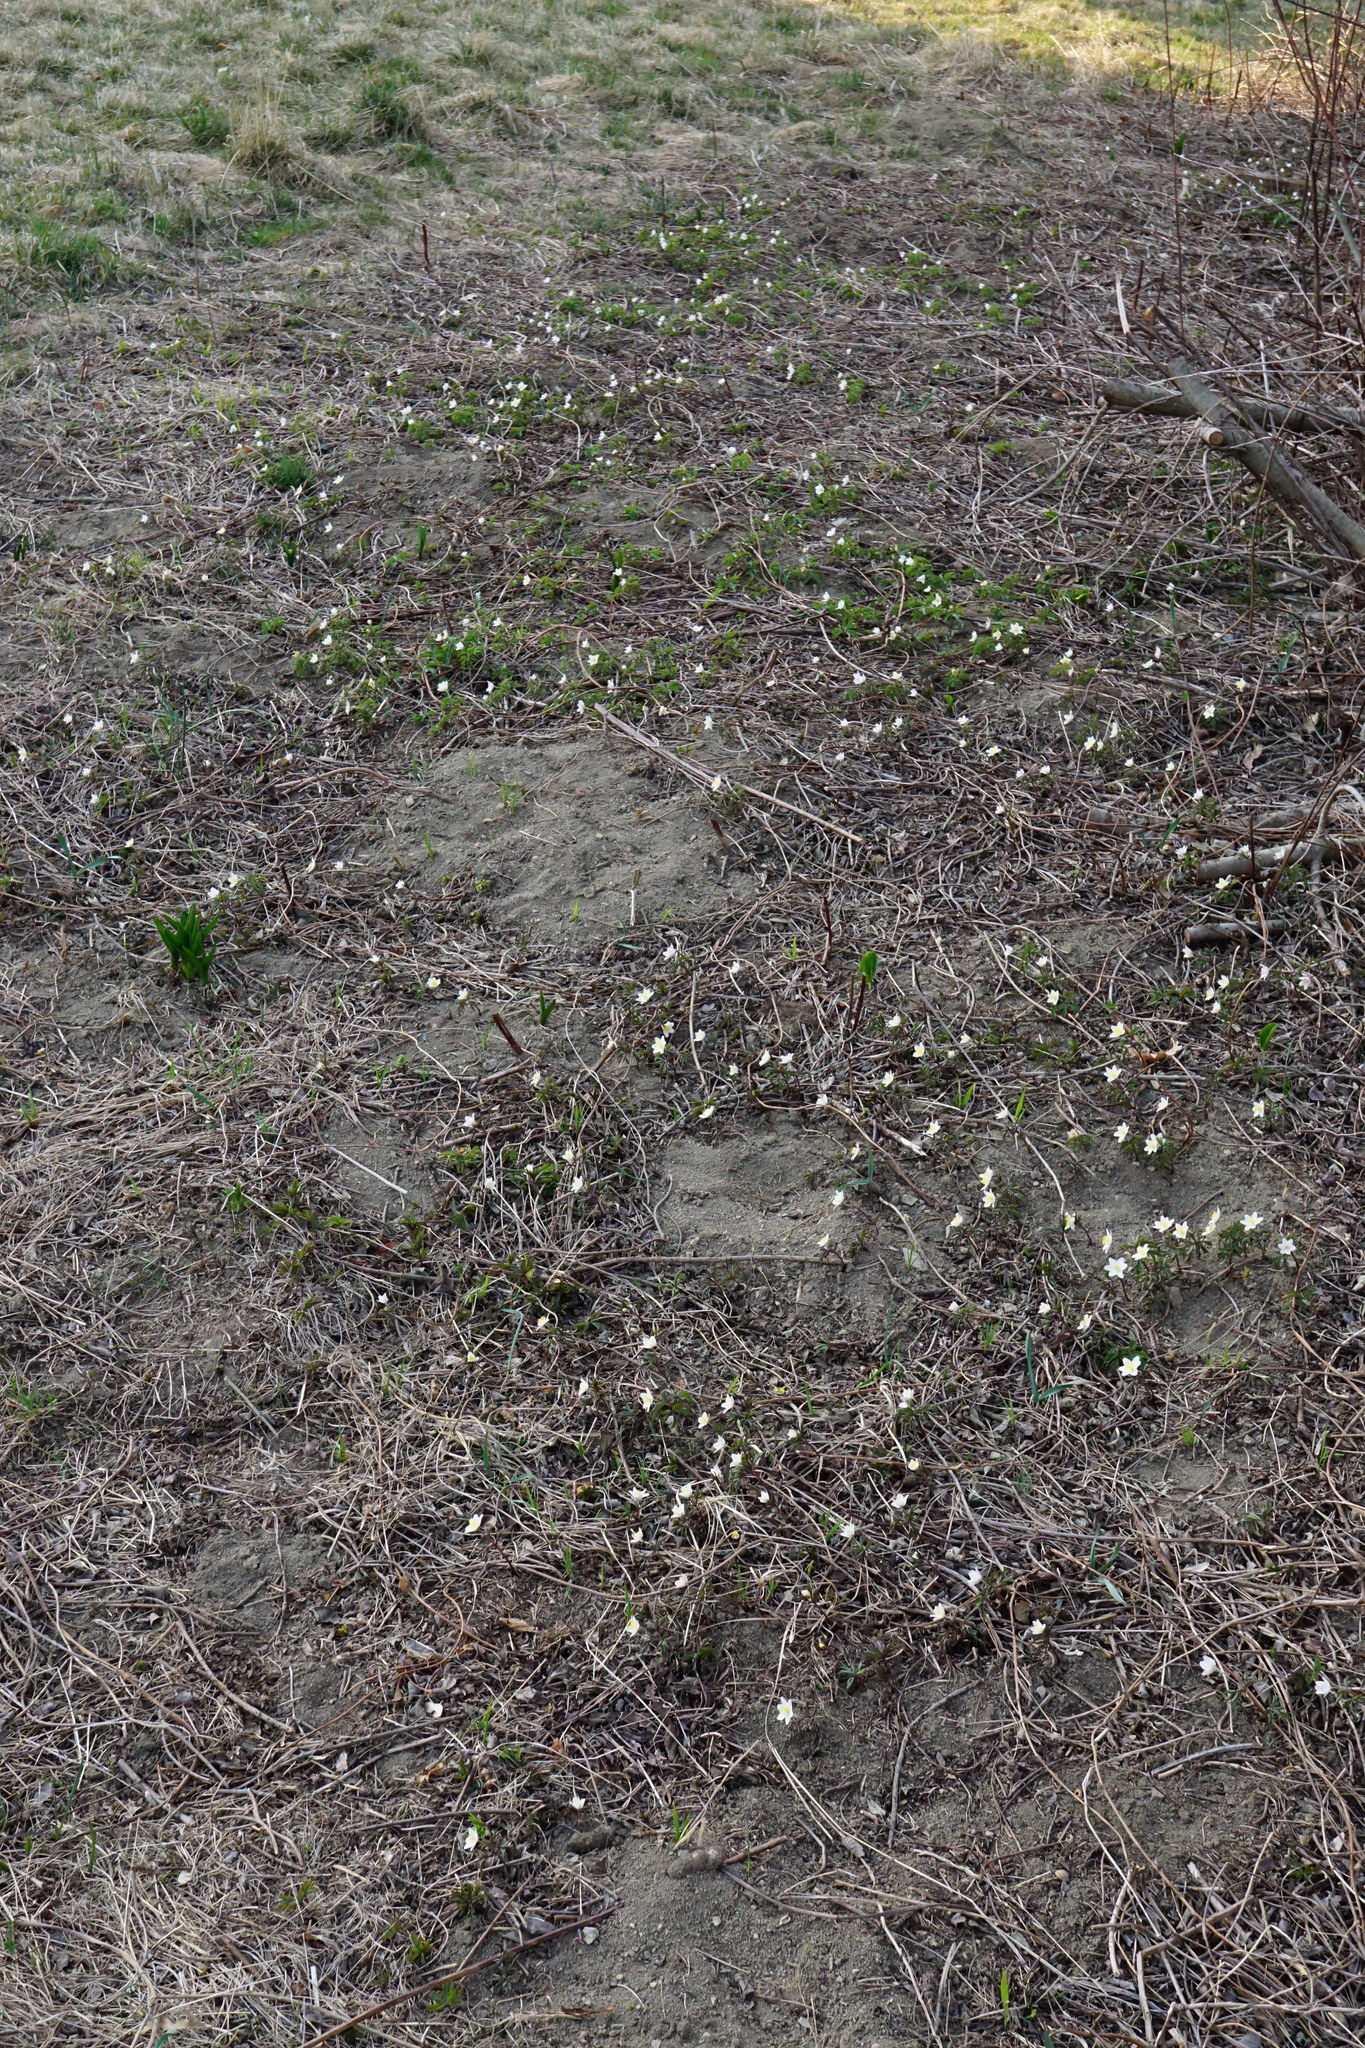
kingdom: Plantae
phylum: Tracheophyta
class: Magnoliopsida
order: Ranunculales
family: Ranunculaceae
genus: Anemone
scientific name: Anemone nemorosa
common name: Wood anemone
